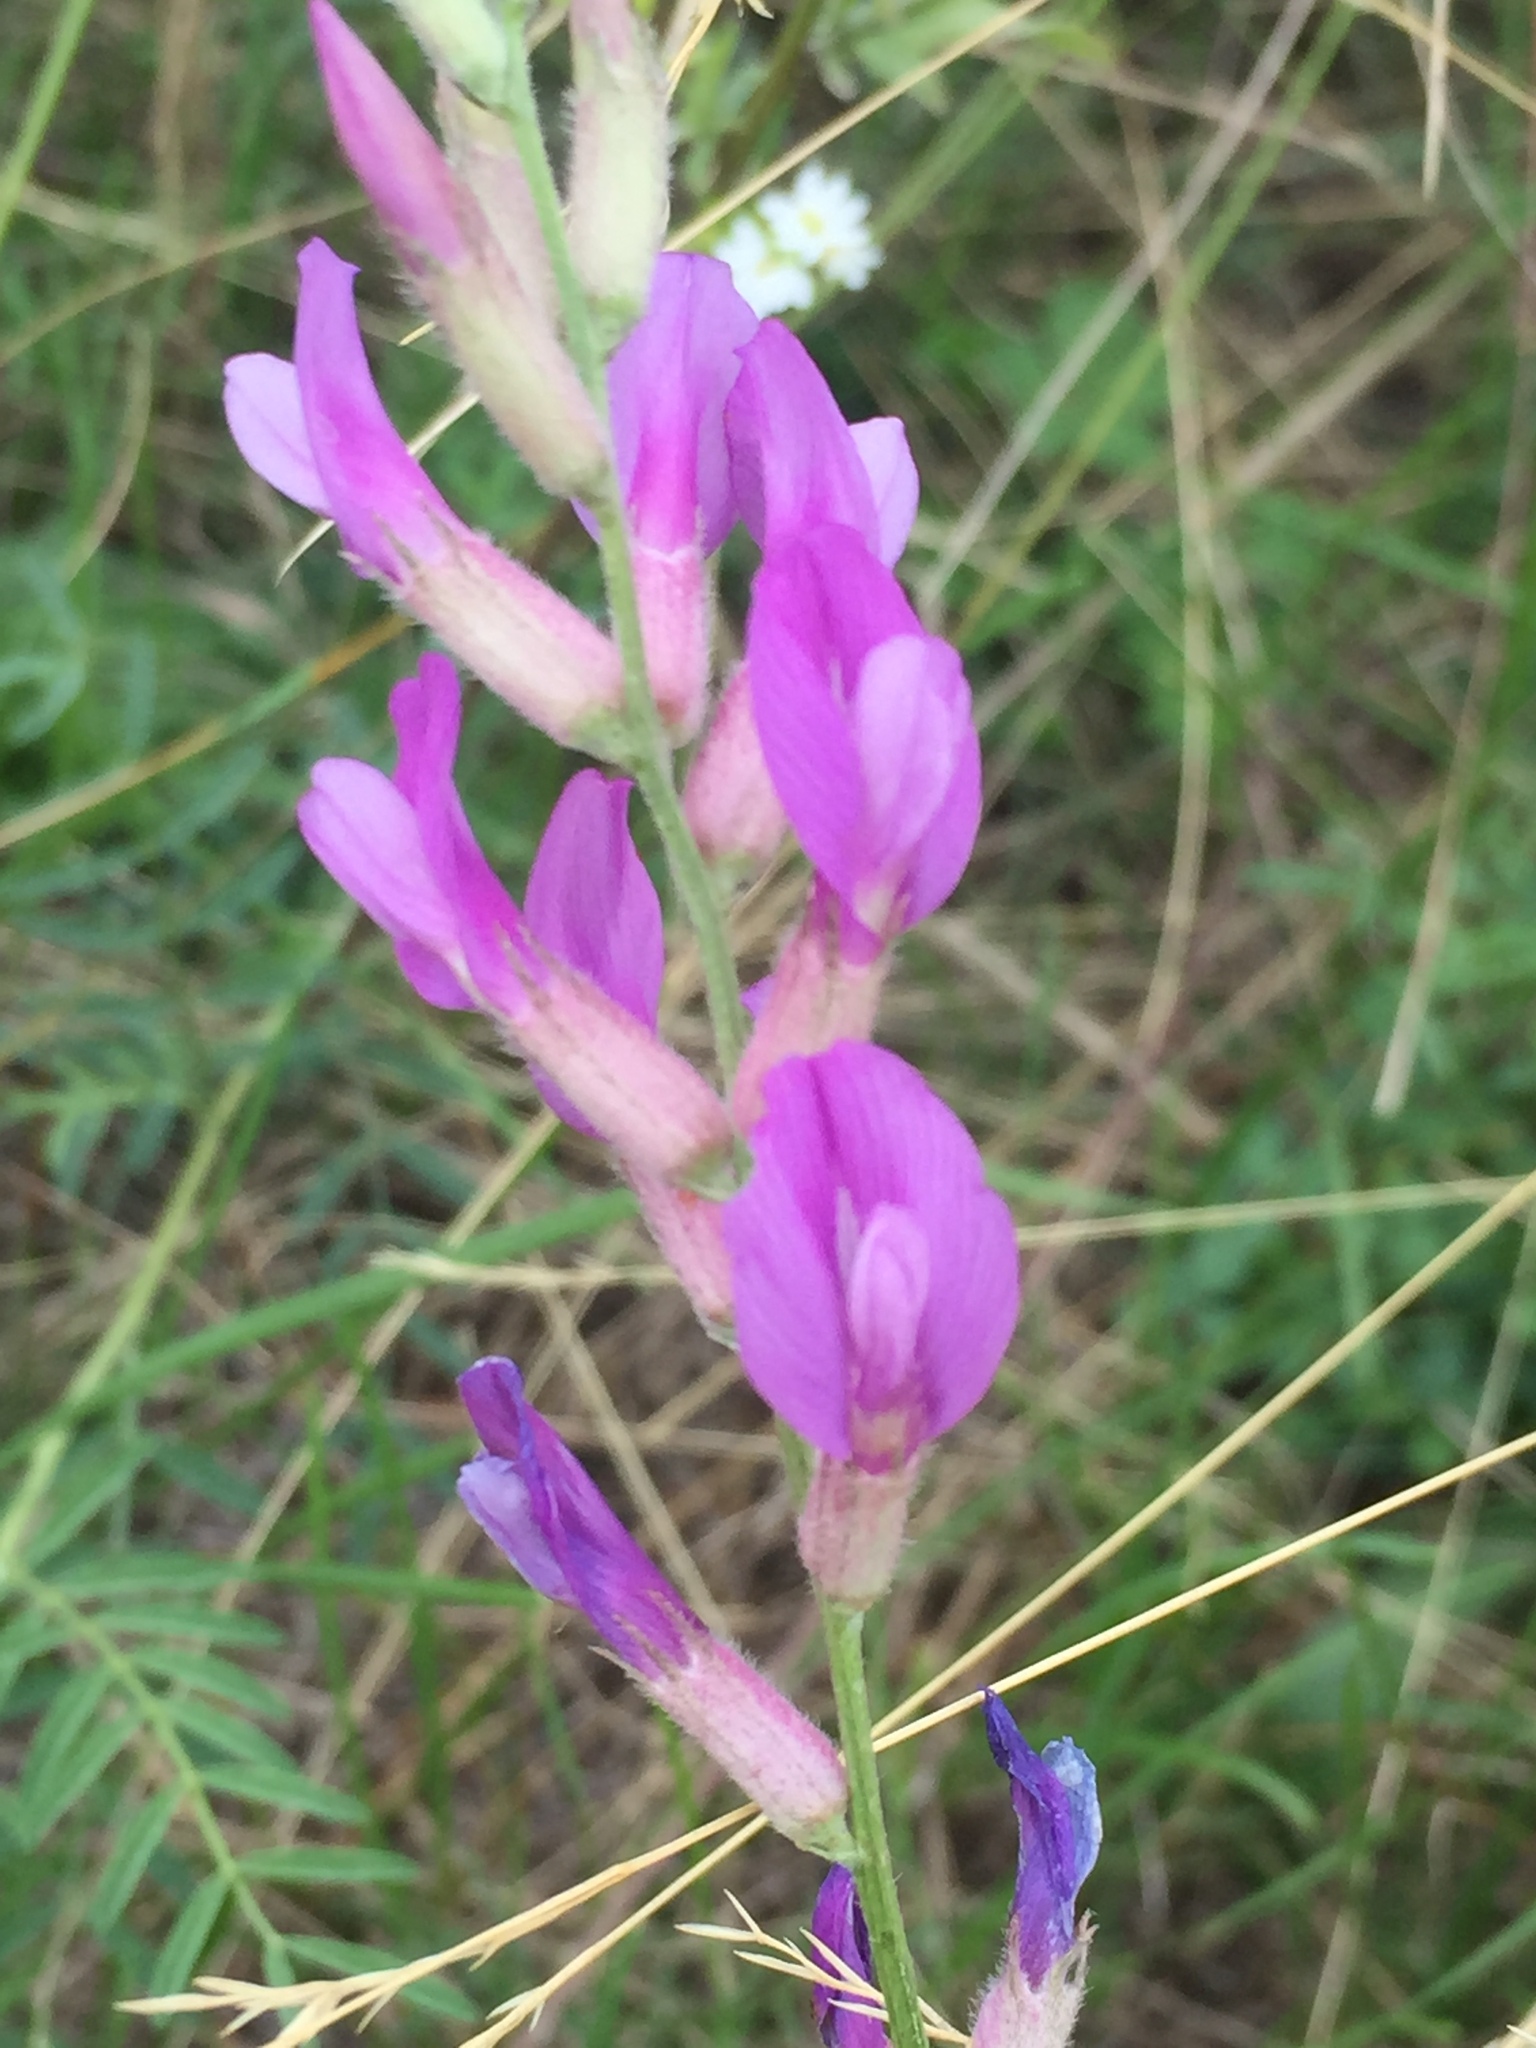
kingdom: Plantae
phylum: Tracheophyta
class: Magnoliopsida
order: Fabales
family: Fabaceae
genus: Astragalus
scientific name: Astragalus varius
